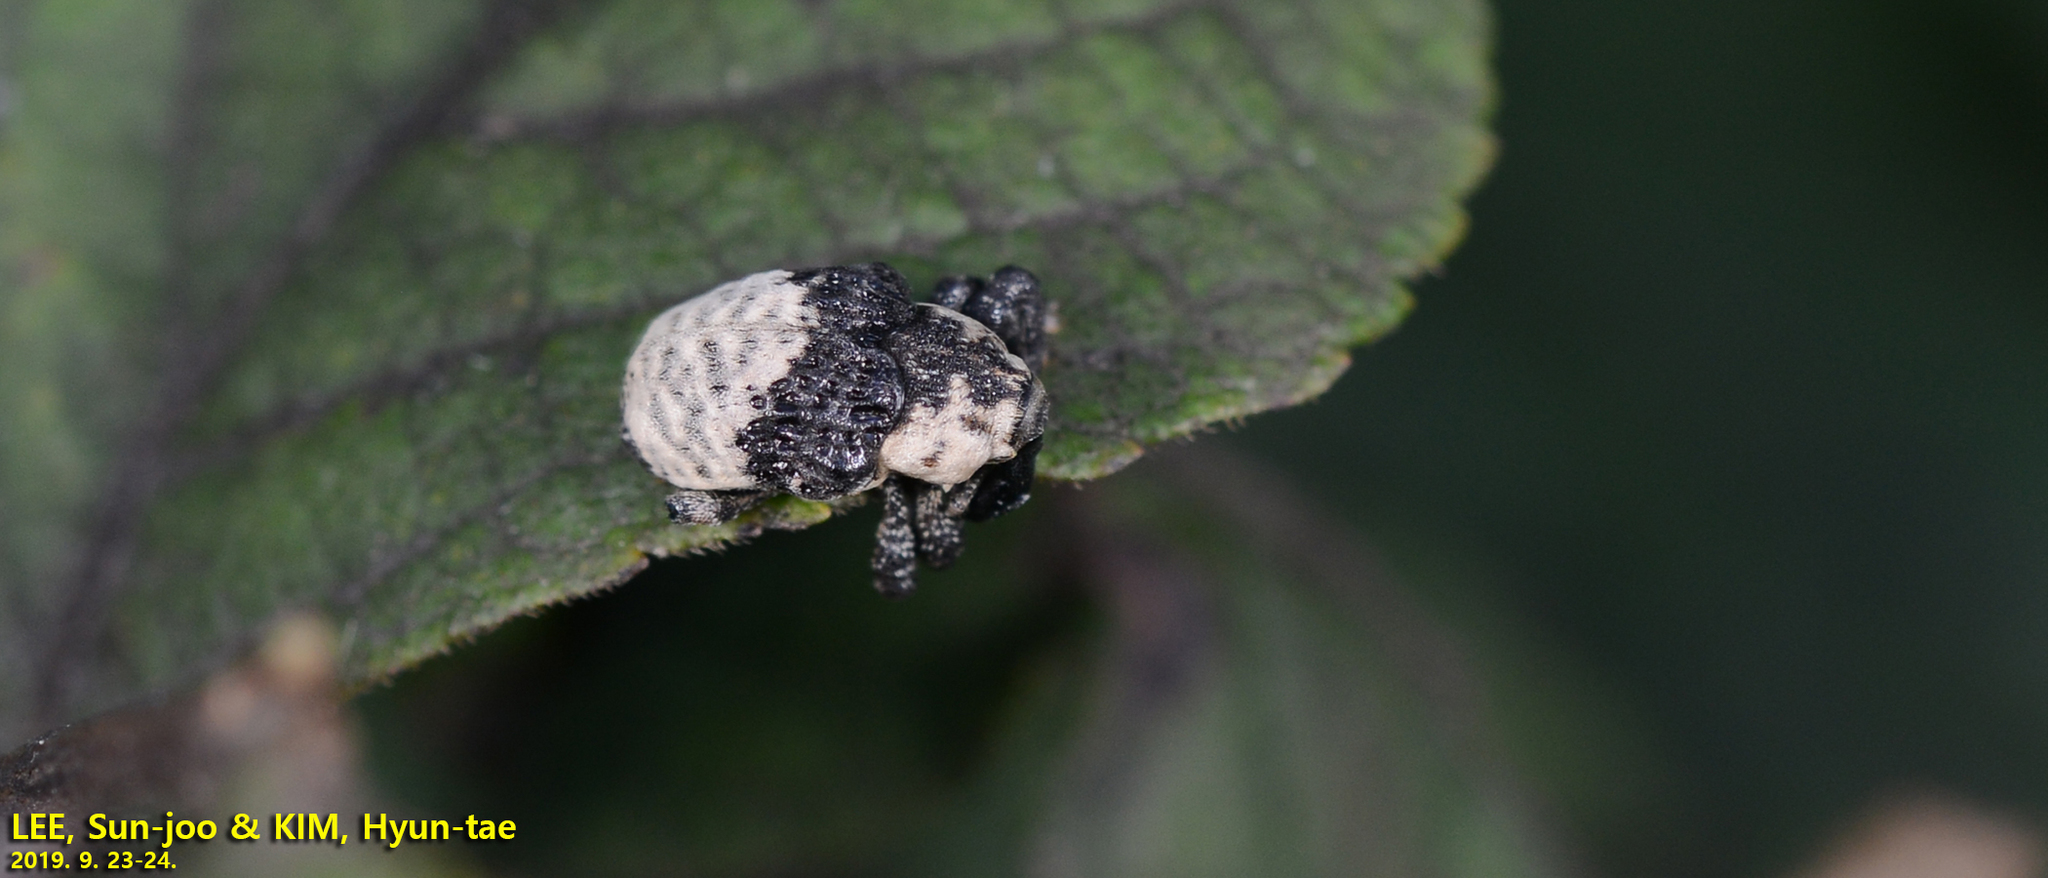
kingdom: Animalia
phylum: Arthropoda
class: Insecta
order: Coleoptera
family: Curculionidae
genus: Alcides
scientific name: Alcides trifidus
